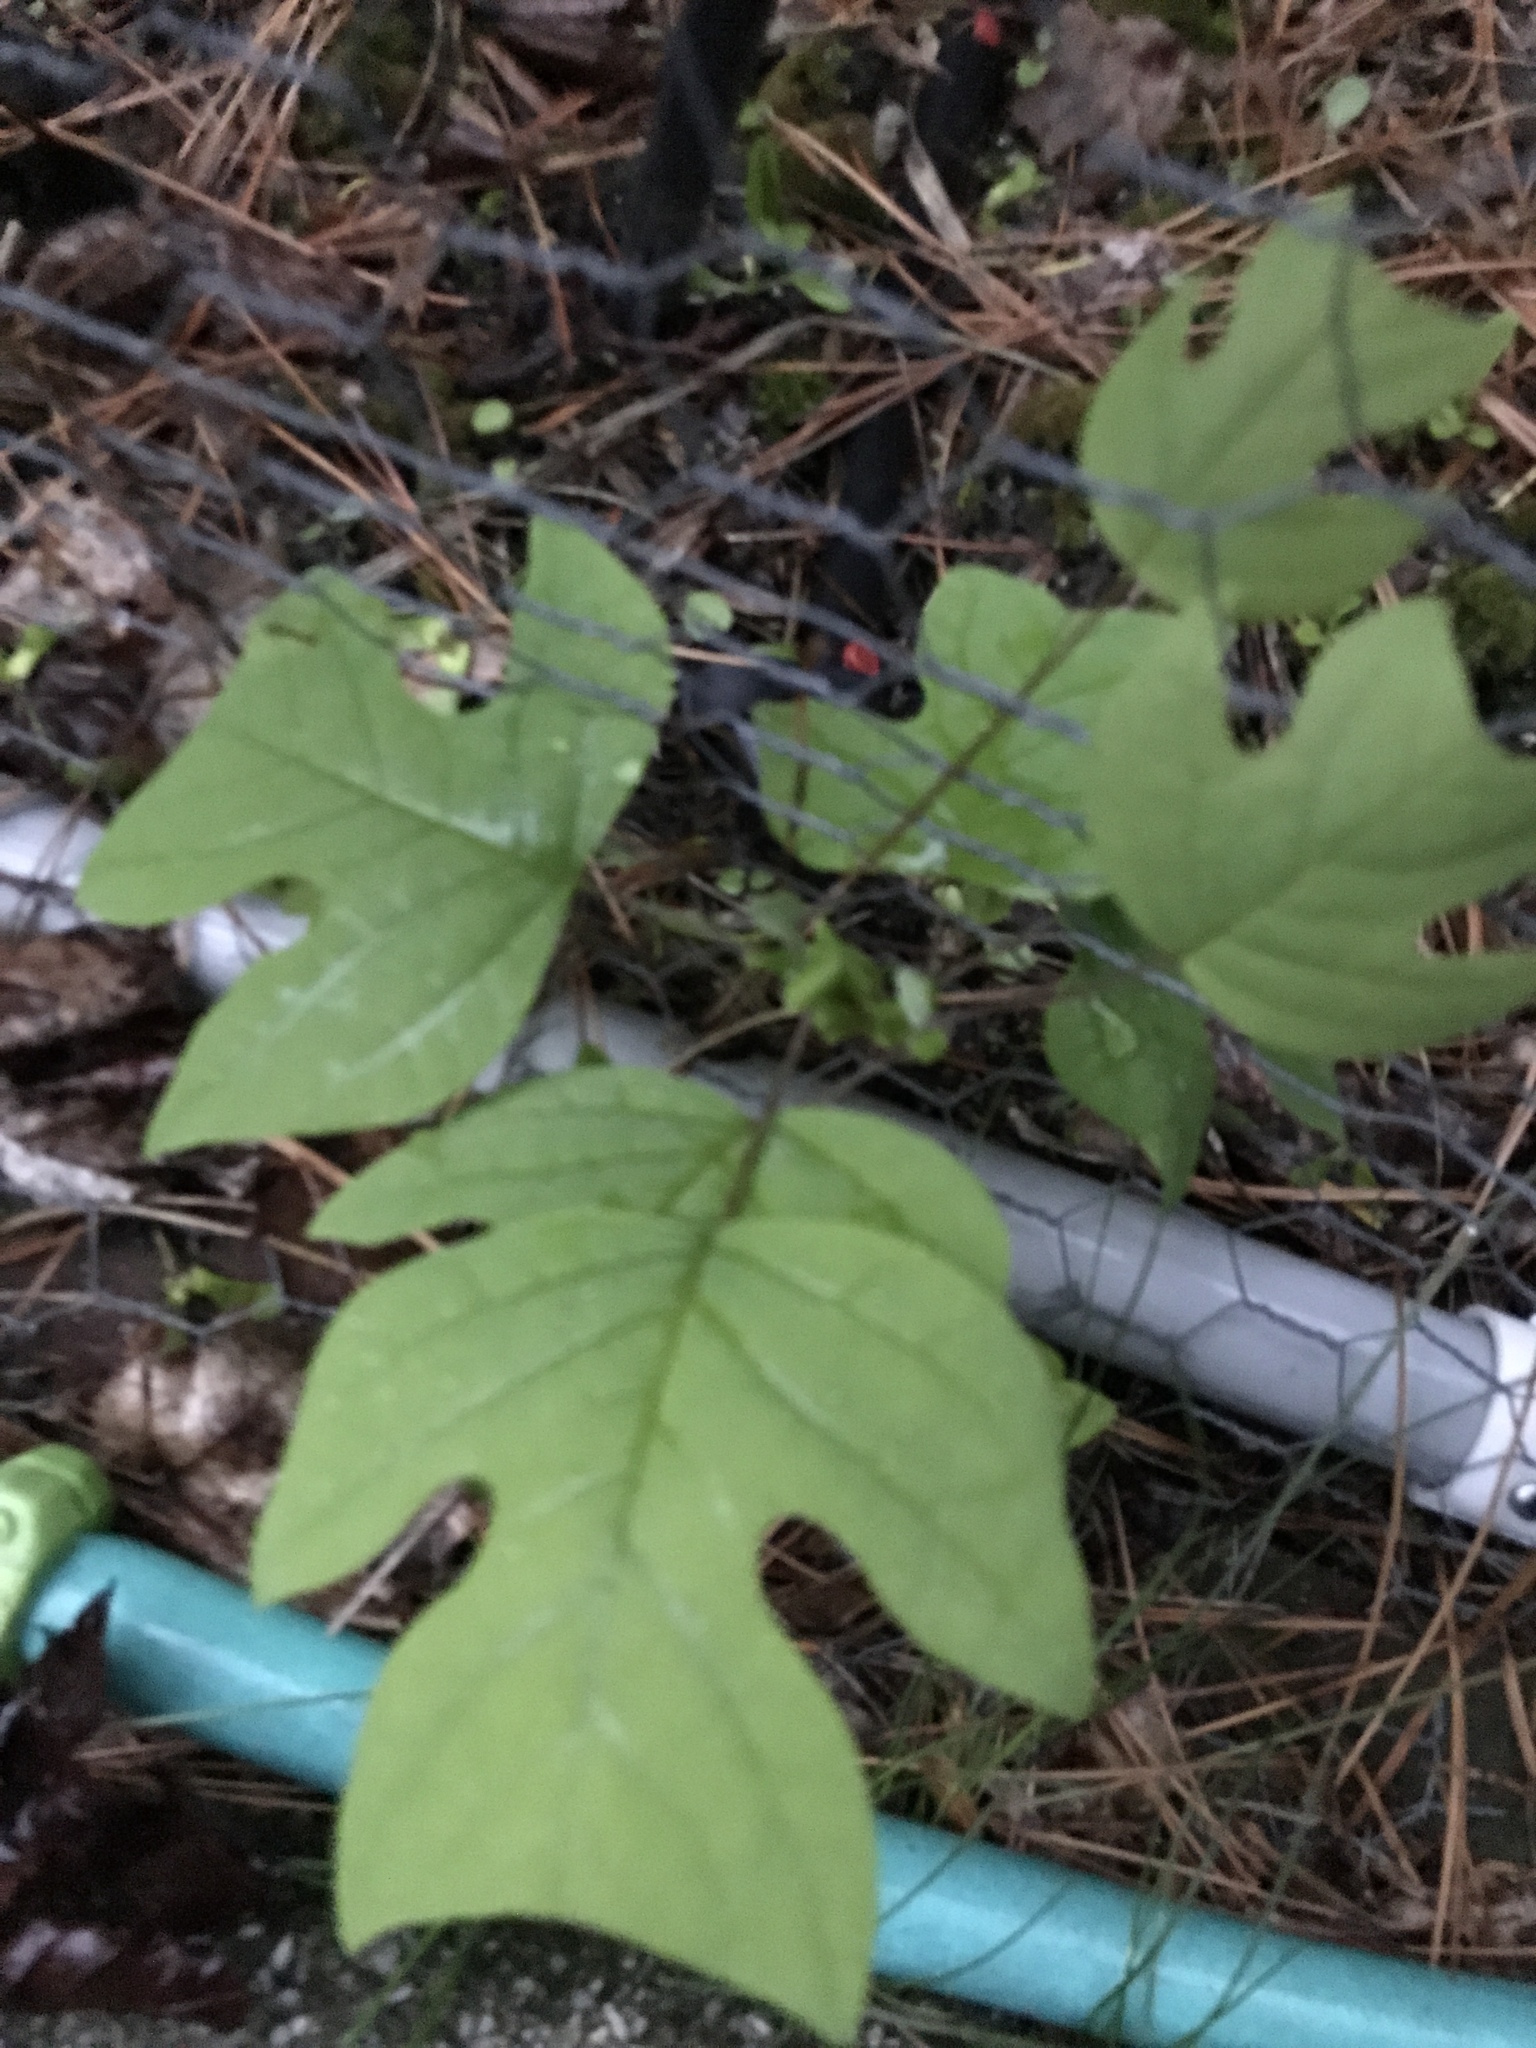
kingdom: Plantae
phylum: Tracheophyta
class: Magnoliopsida
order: Magnoliales
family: Magnoliaceae
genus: Liriodendron
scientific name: Liriodendron tulipifera
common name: Tulip tree
